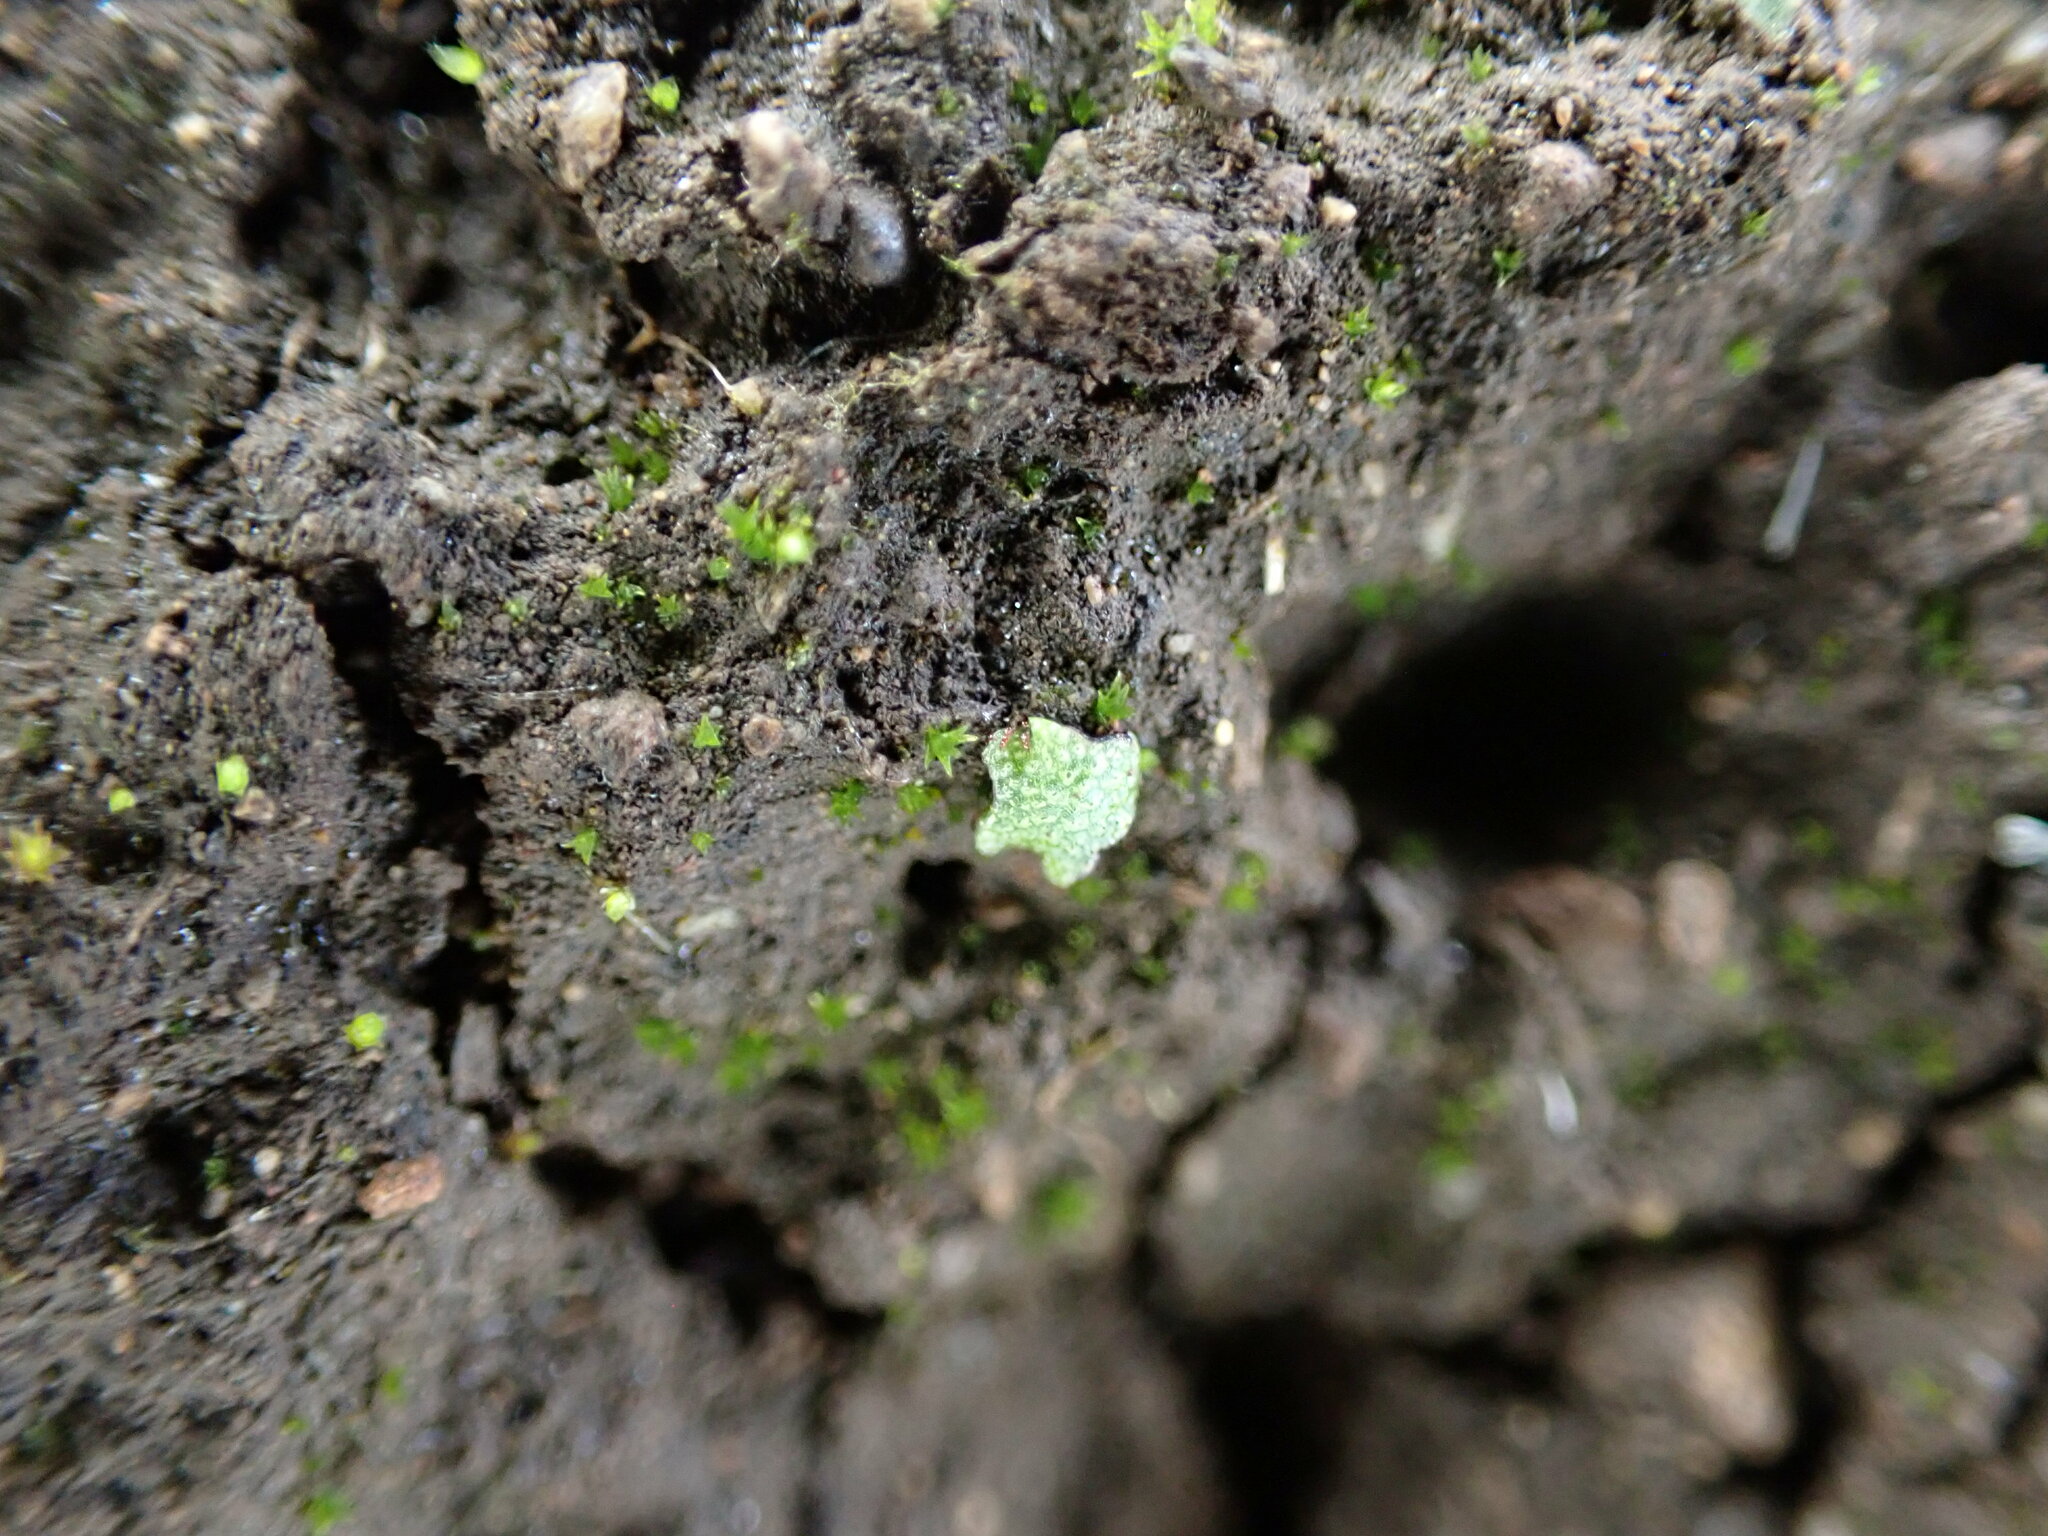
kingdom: Plantae
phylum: Marchantiophyta
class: Marchantiopsida
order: Marchantiales
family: Ricciaceae
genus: Riccia
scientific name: Riccia cavernosa
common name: Cavernous crystalwort
